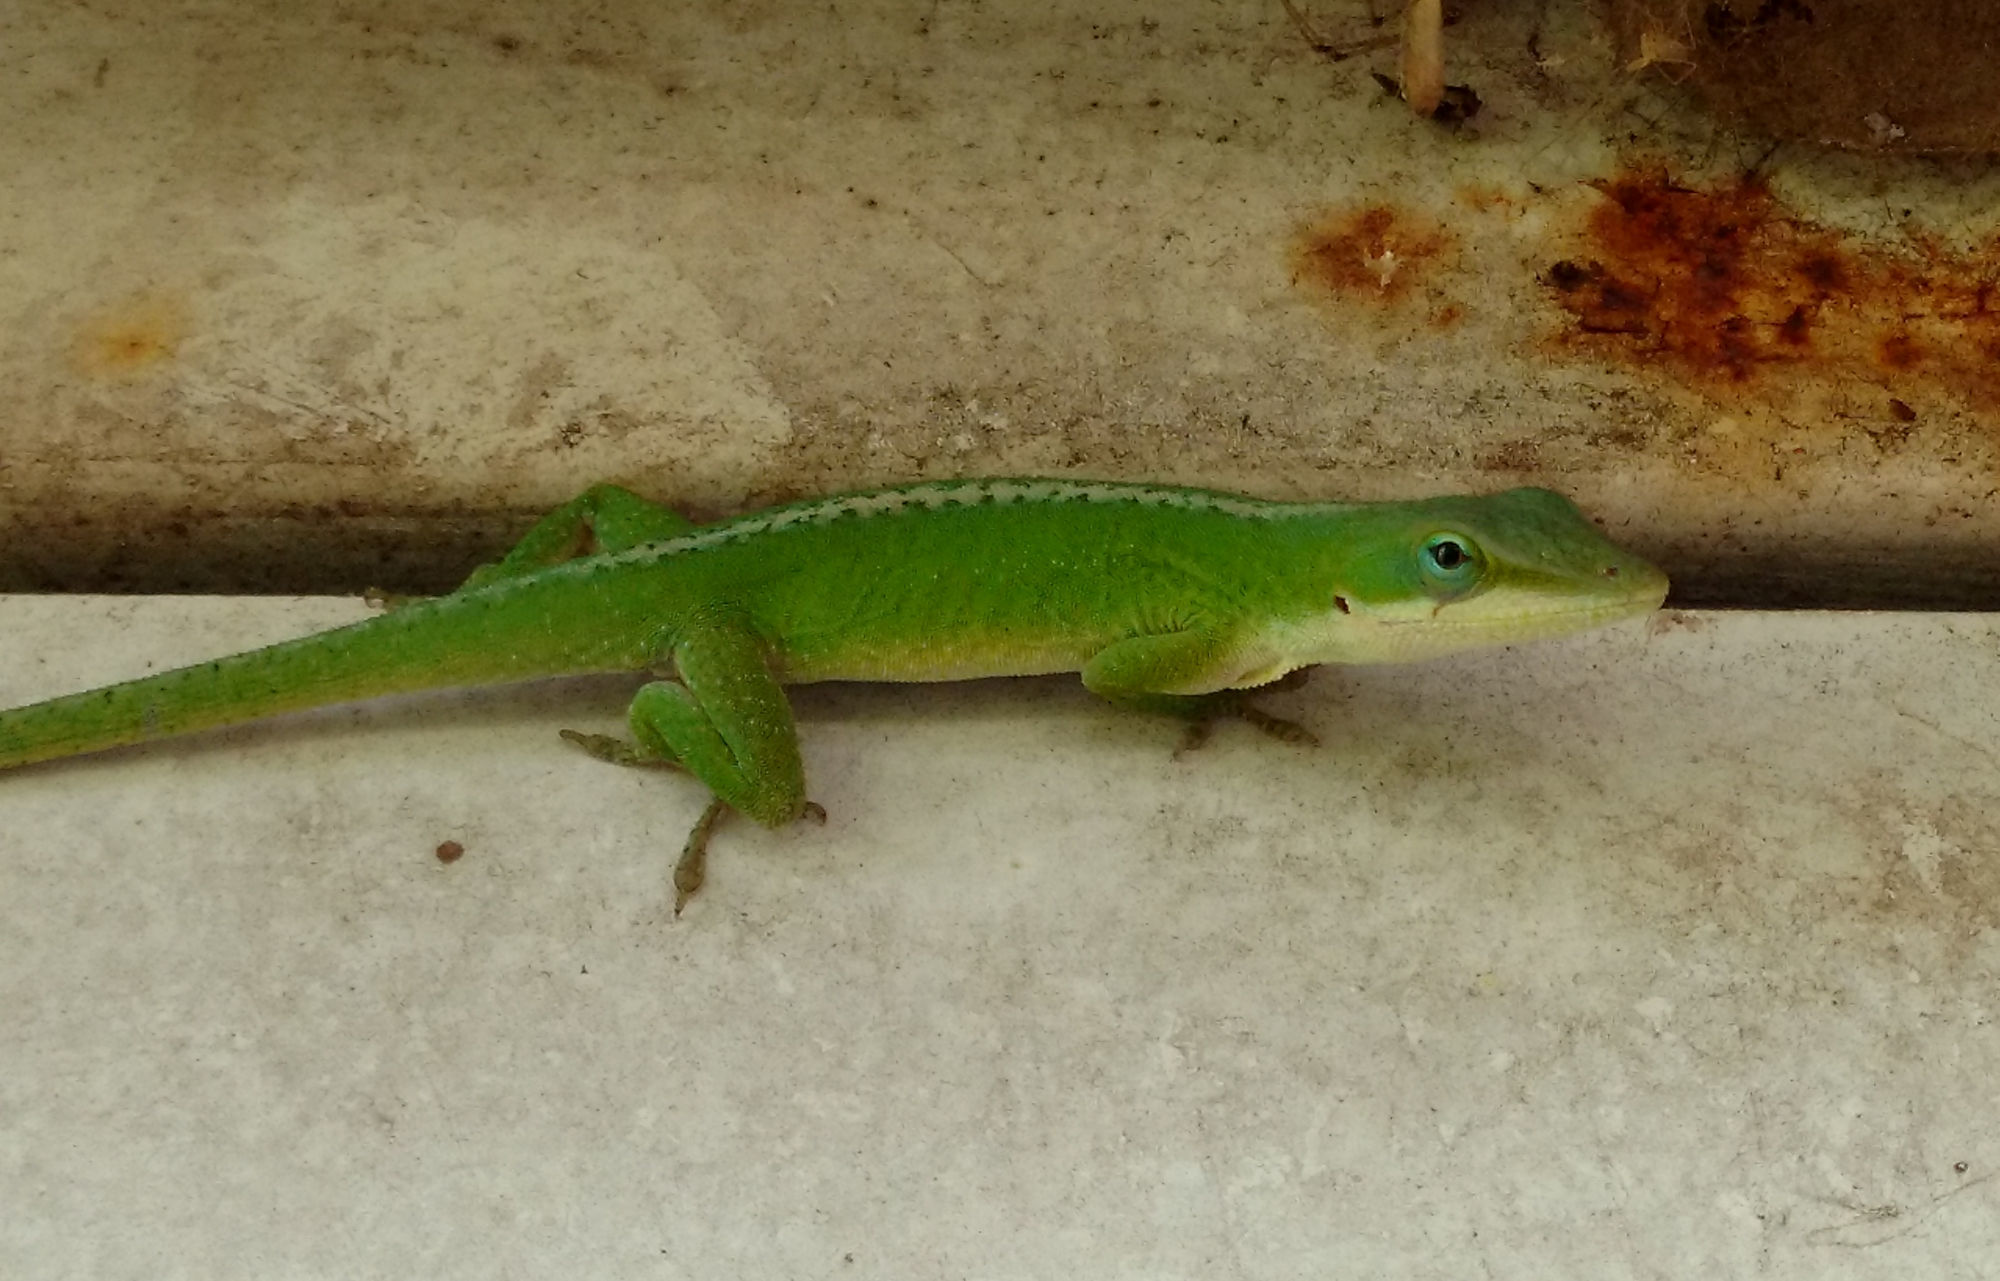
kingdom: Animalia
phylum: Chordata
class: Squamata
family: Dactyloidae
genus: Anolis
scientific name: Anolis carolinensis
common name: Green anole
